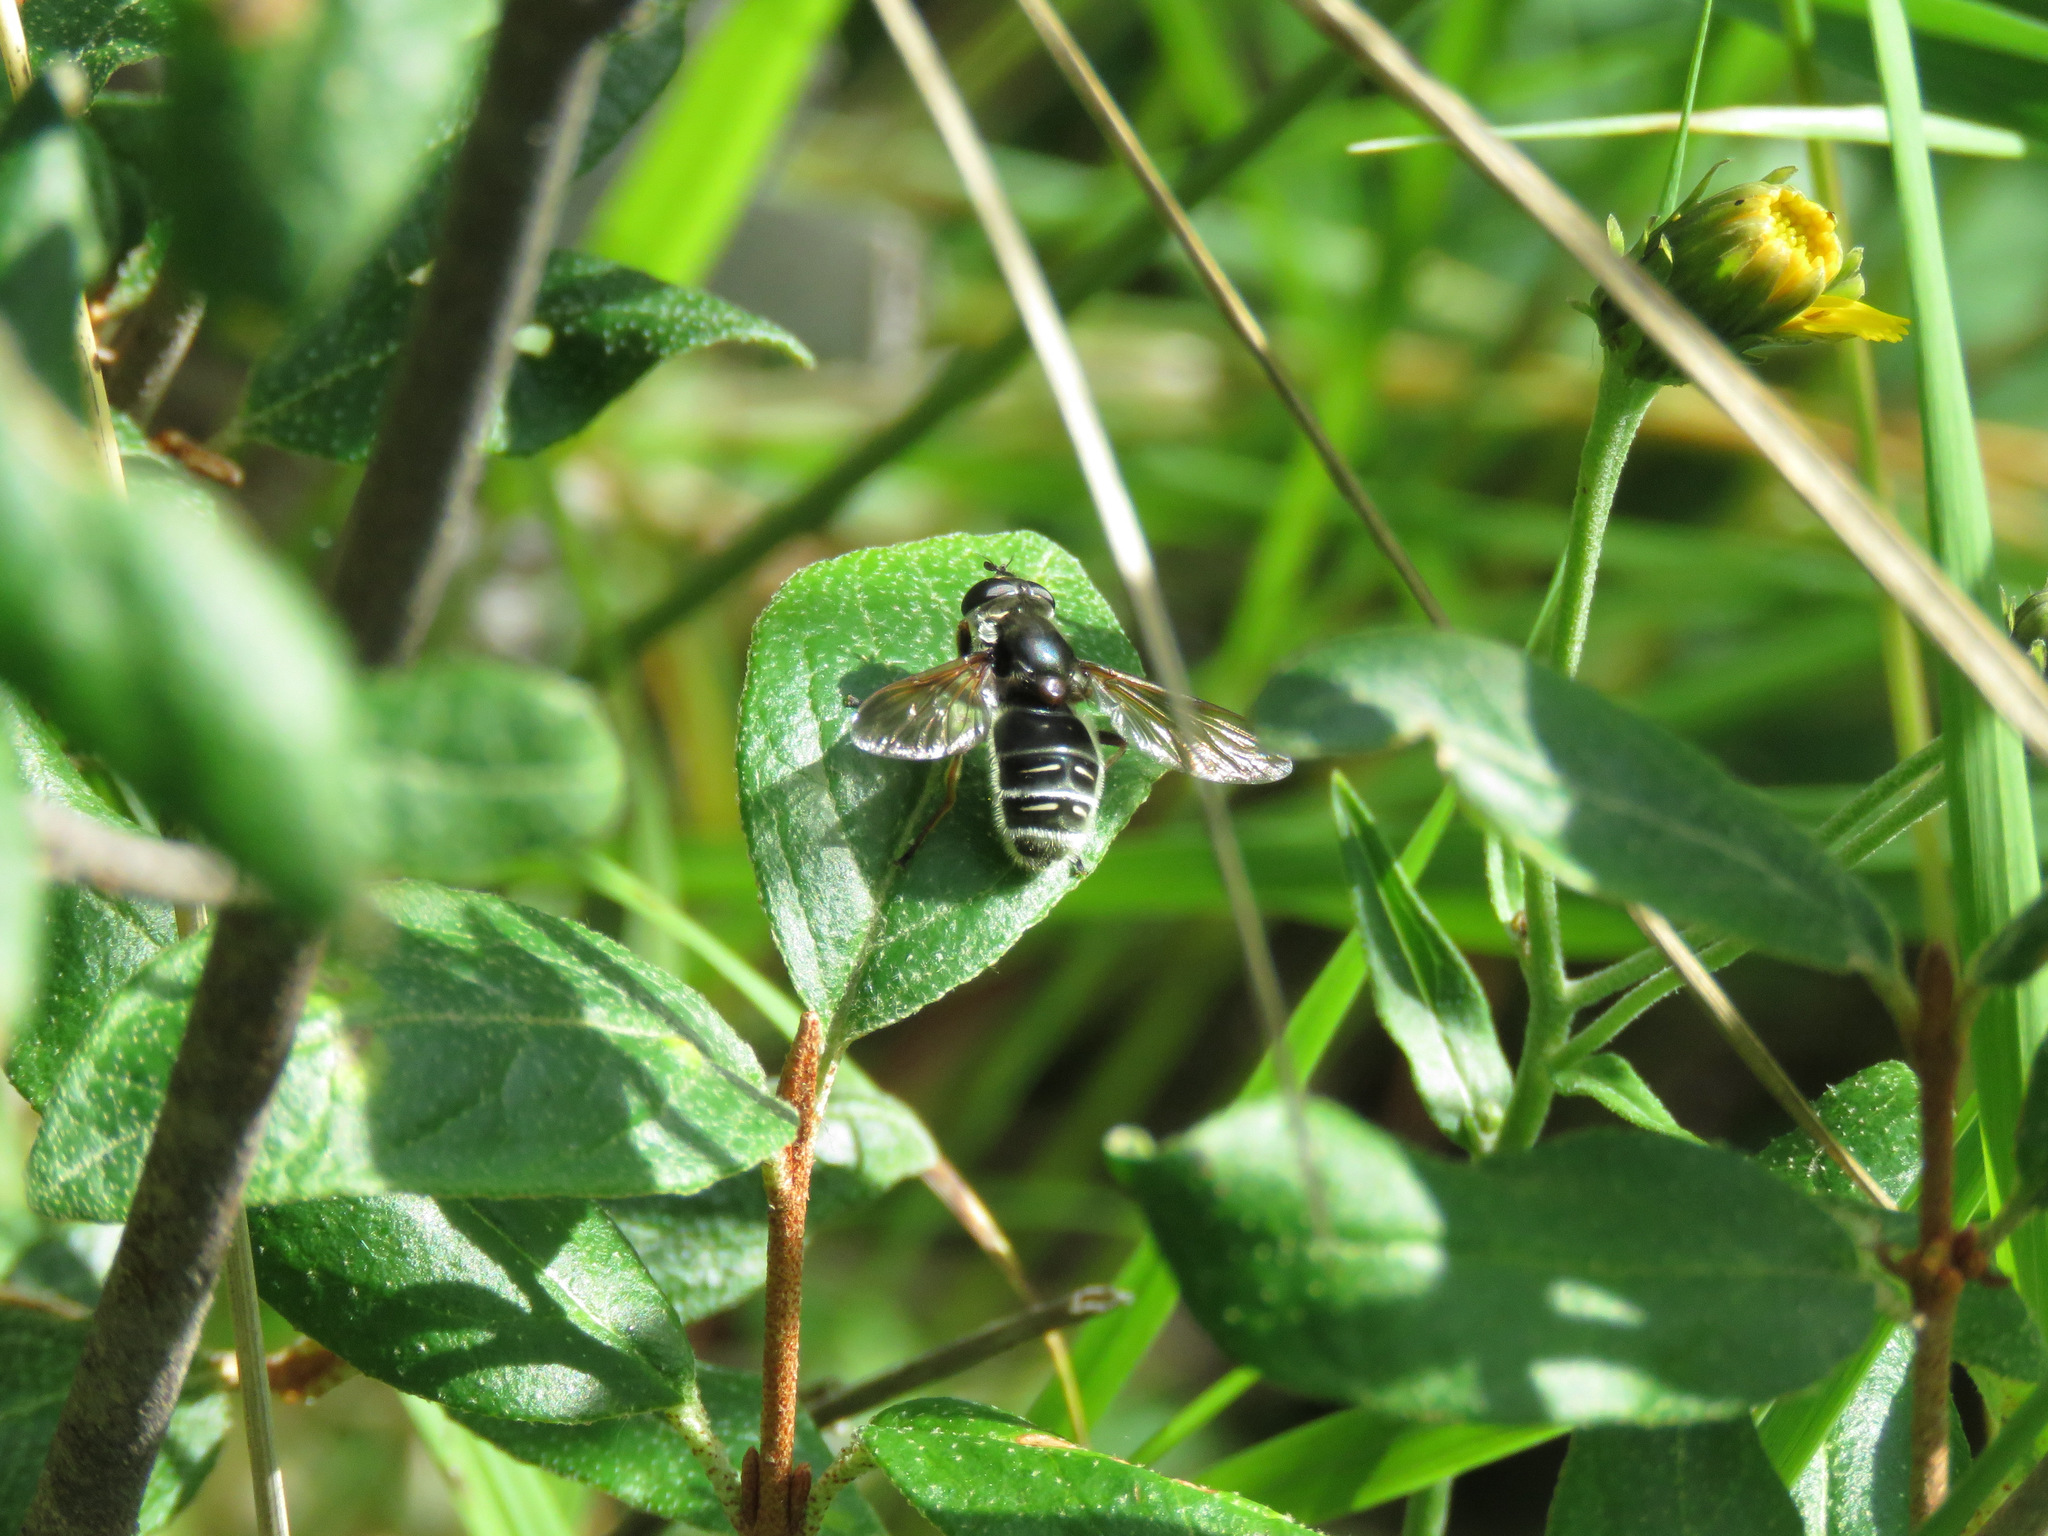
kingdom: Animalia
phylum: Arthropoda
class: Insecta
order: Diptera
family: Syrphidae
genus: Sericomyia
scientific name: Sericomyia militaris
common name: Narrow-banded pond fly
